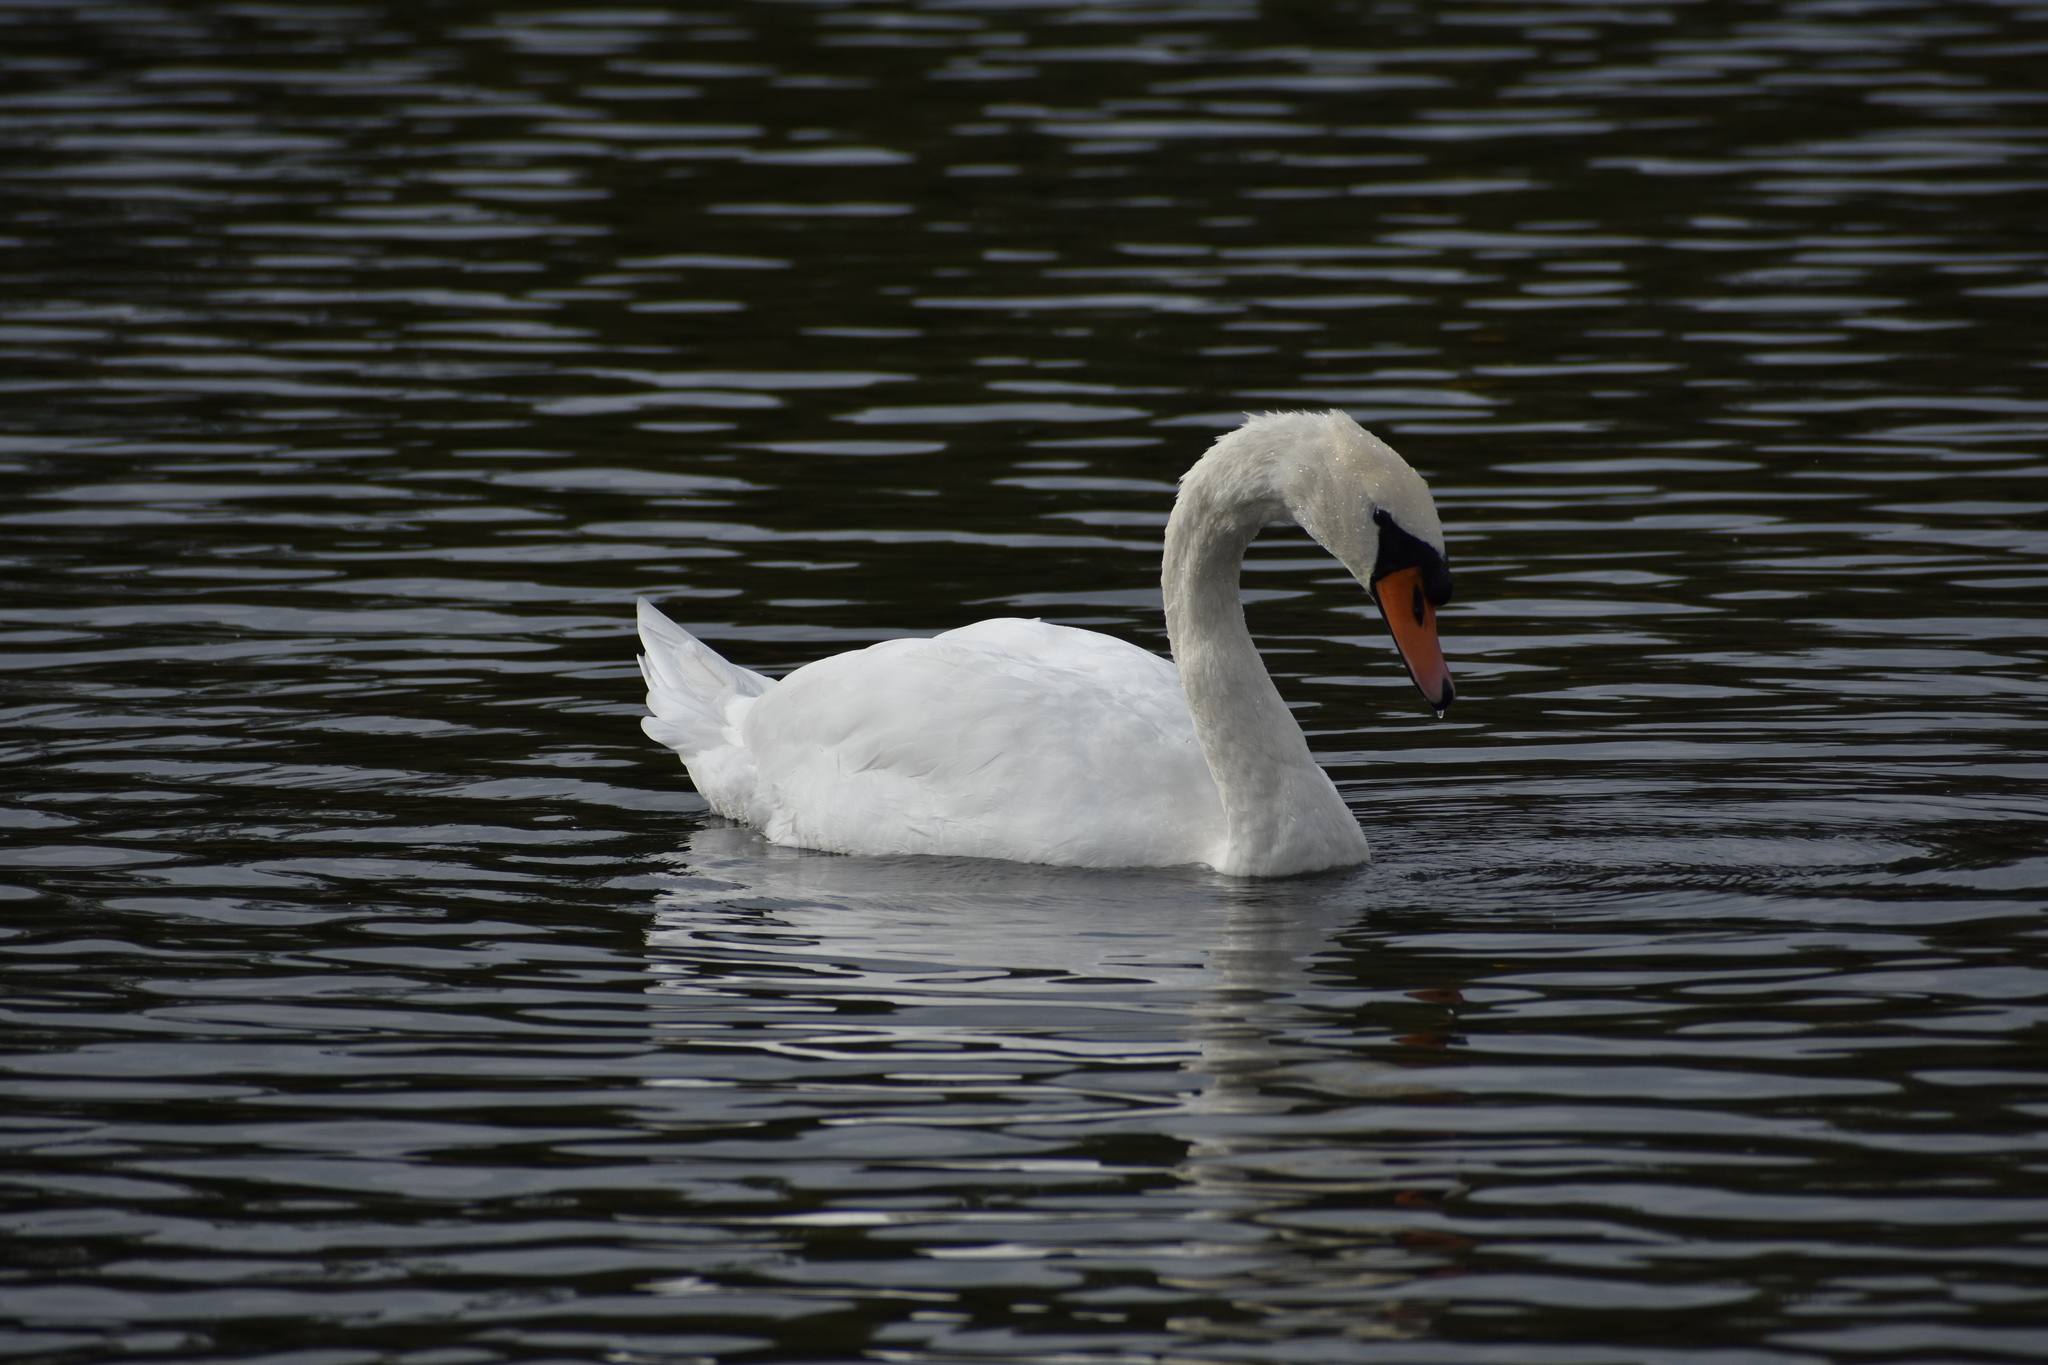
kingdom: Animalia
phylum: Chordata
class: Aves
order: Anseriformes
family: Anatidae
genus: Cygnus
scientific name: Cygnus olor
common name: Mute swan
